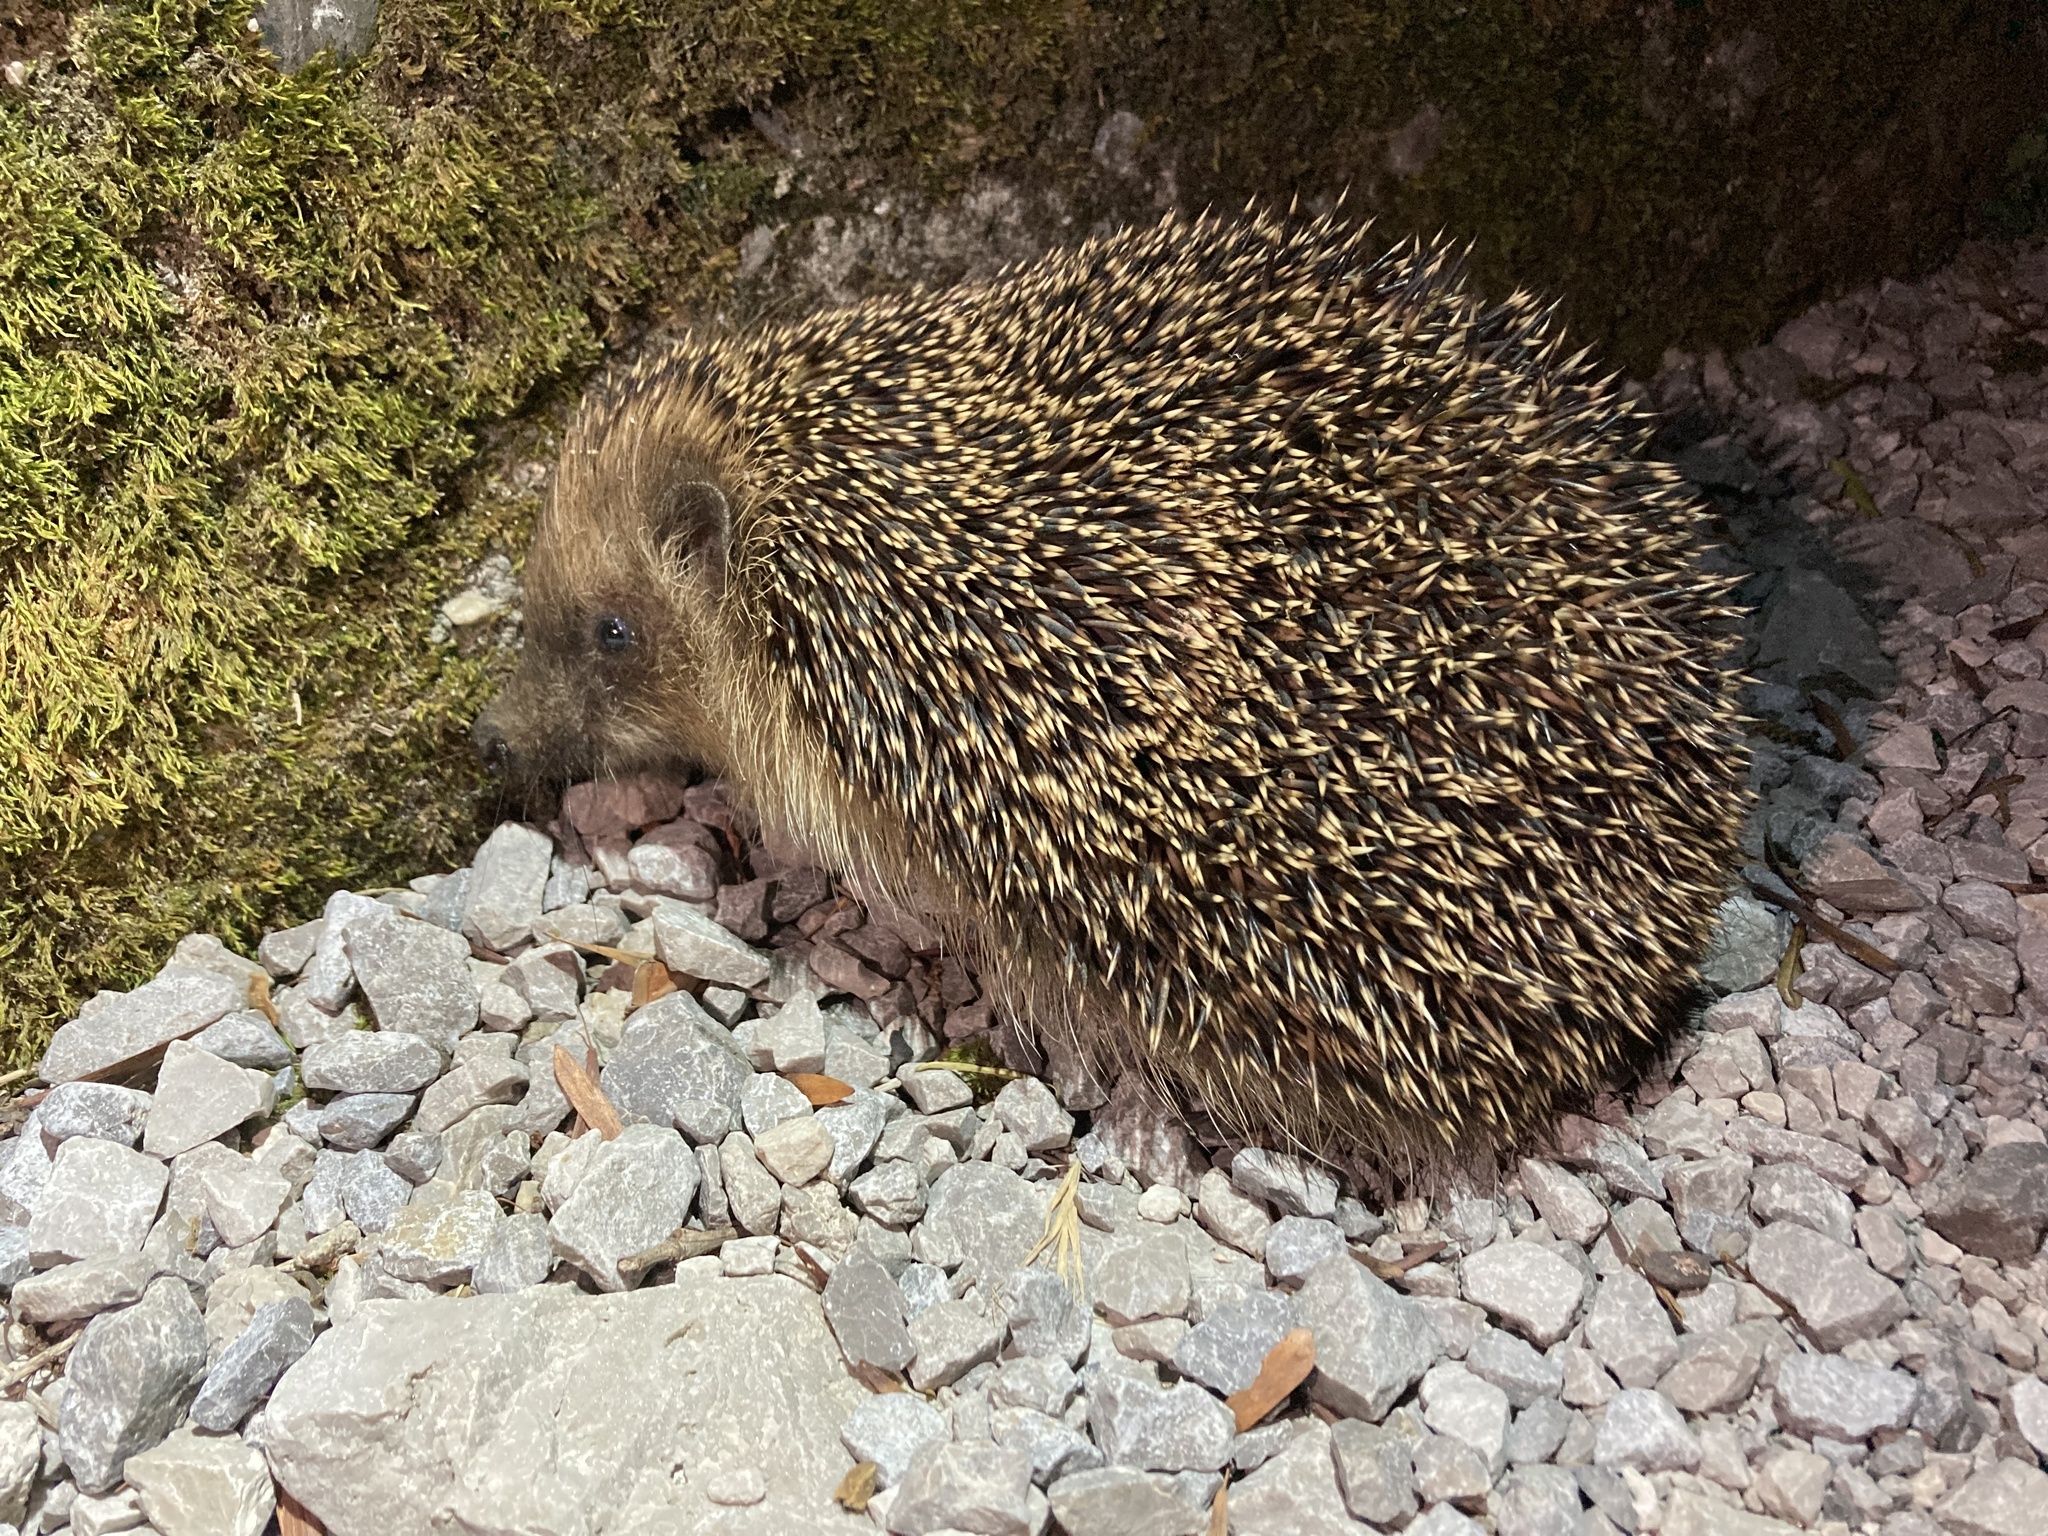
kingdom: Animalia
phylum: Chordata
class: Mammalia
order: Erinaceomorpha
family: Erinaceidae
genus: Erinaceus
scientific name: Erinaceus europaeus
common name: West european hedgehog
